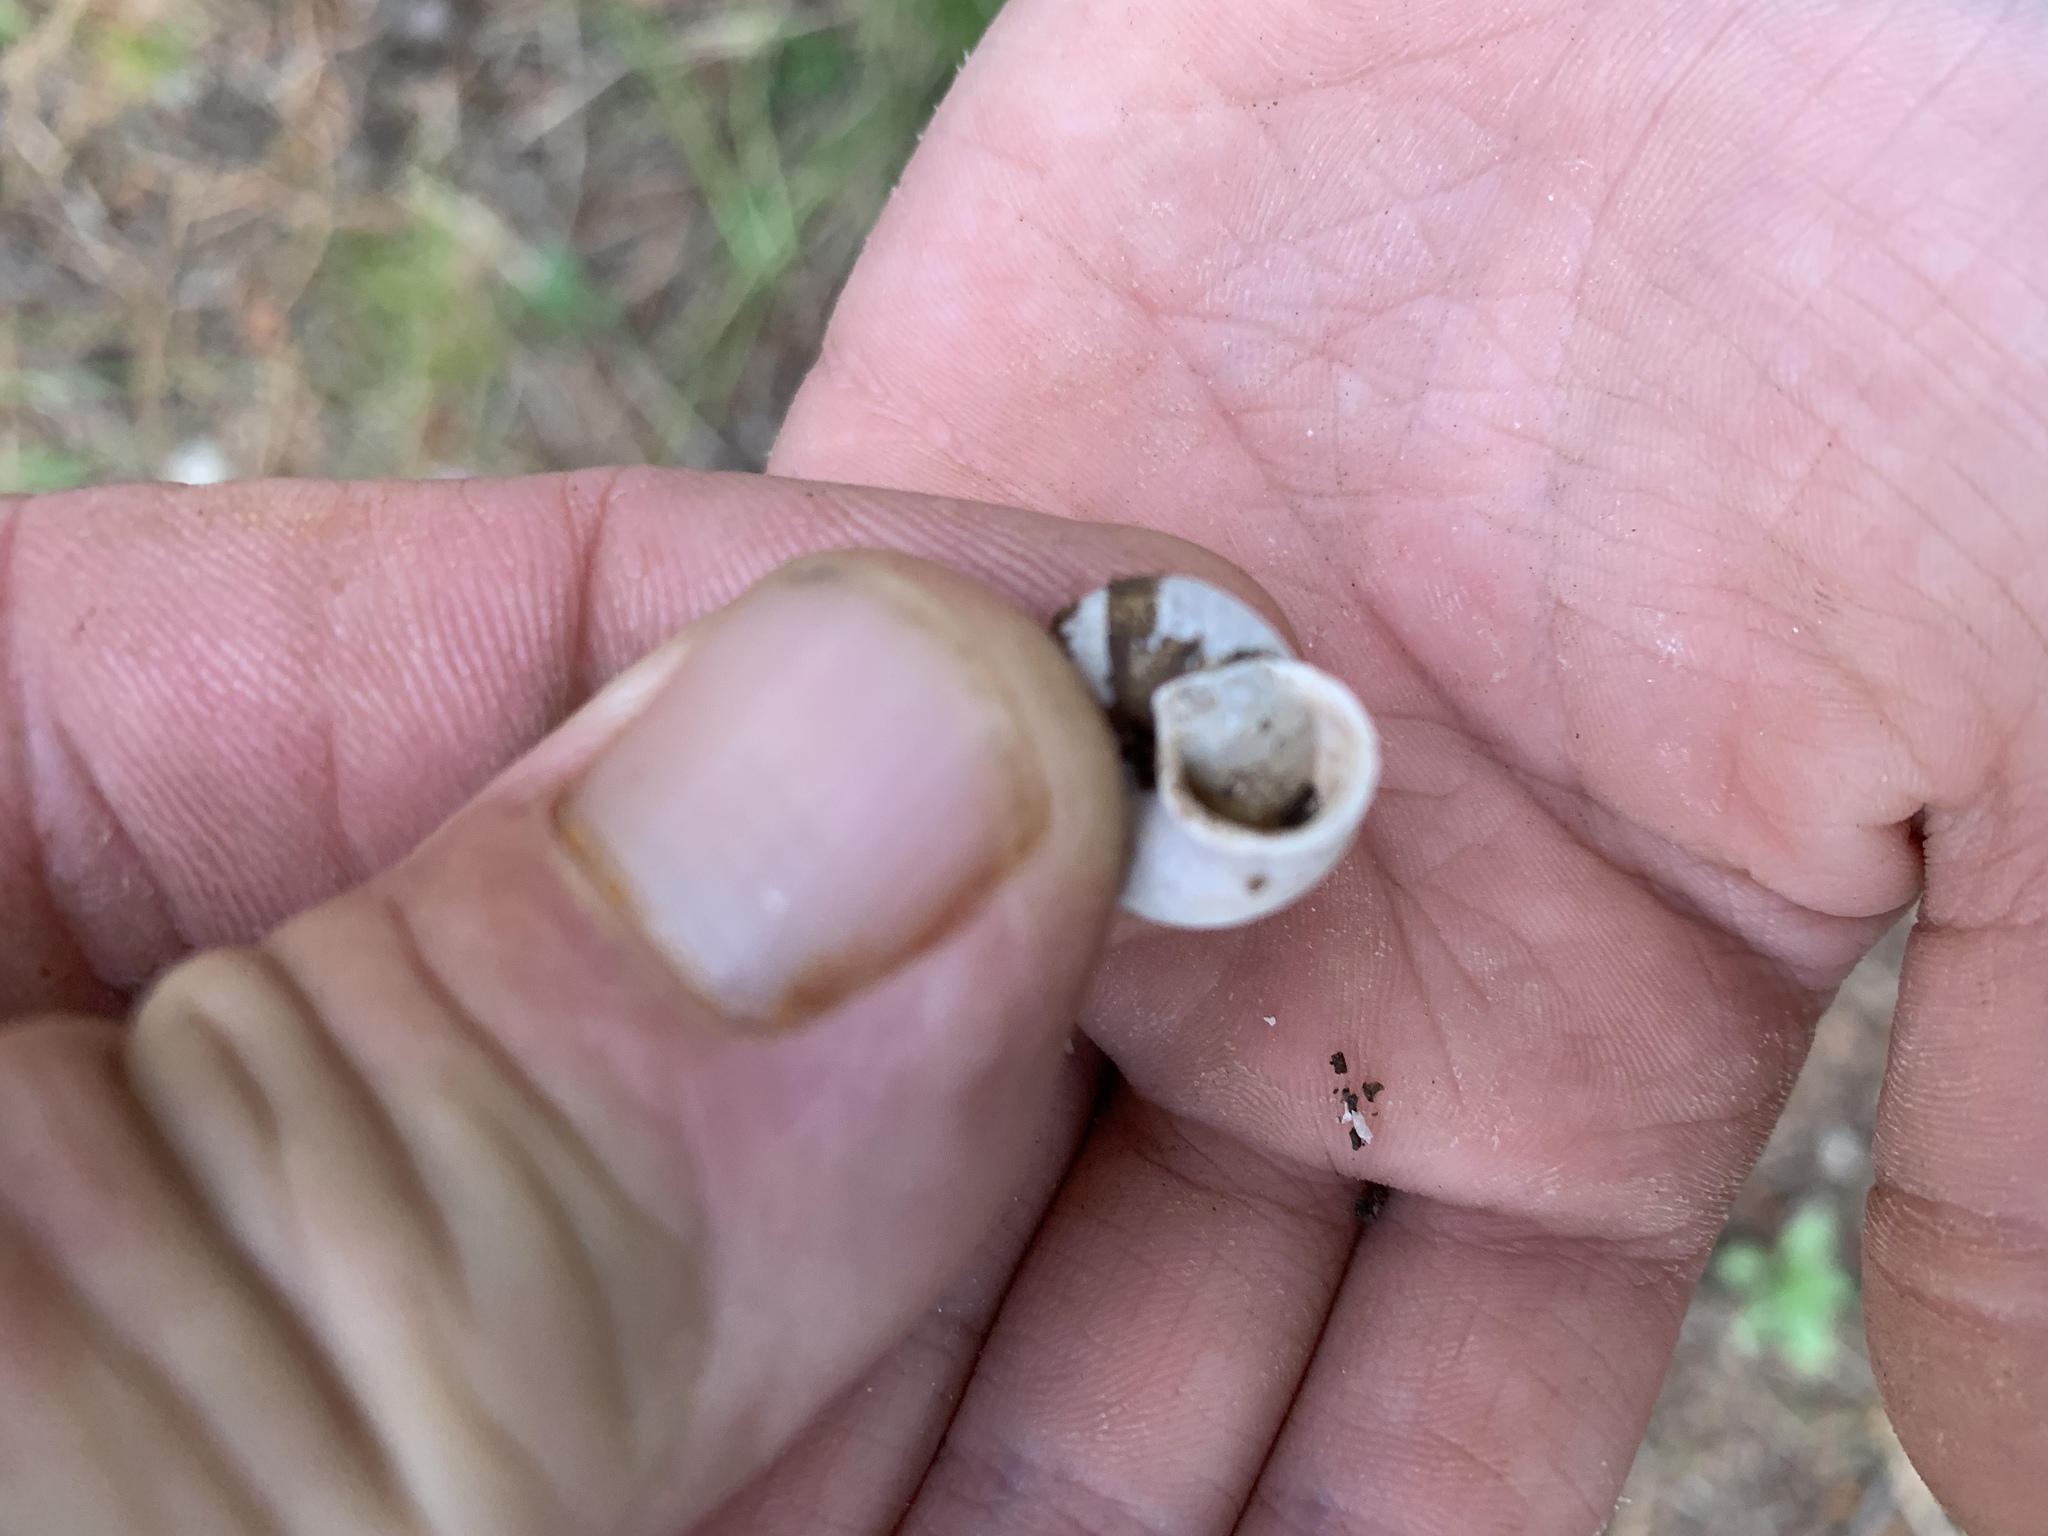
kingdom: Animalia
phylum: Mollusca
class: Gastropoda
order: Stylommatophora
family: Polygyridae
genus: Ashmunella
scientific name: Ashmunella rhyssa
